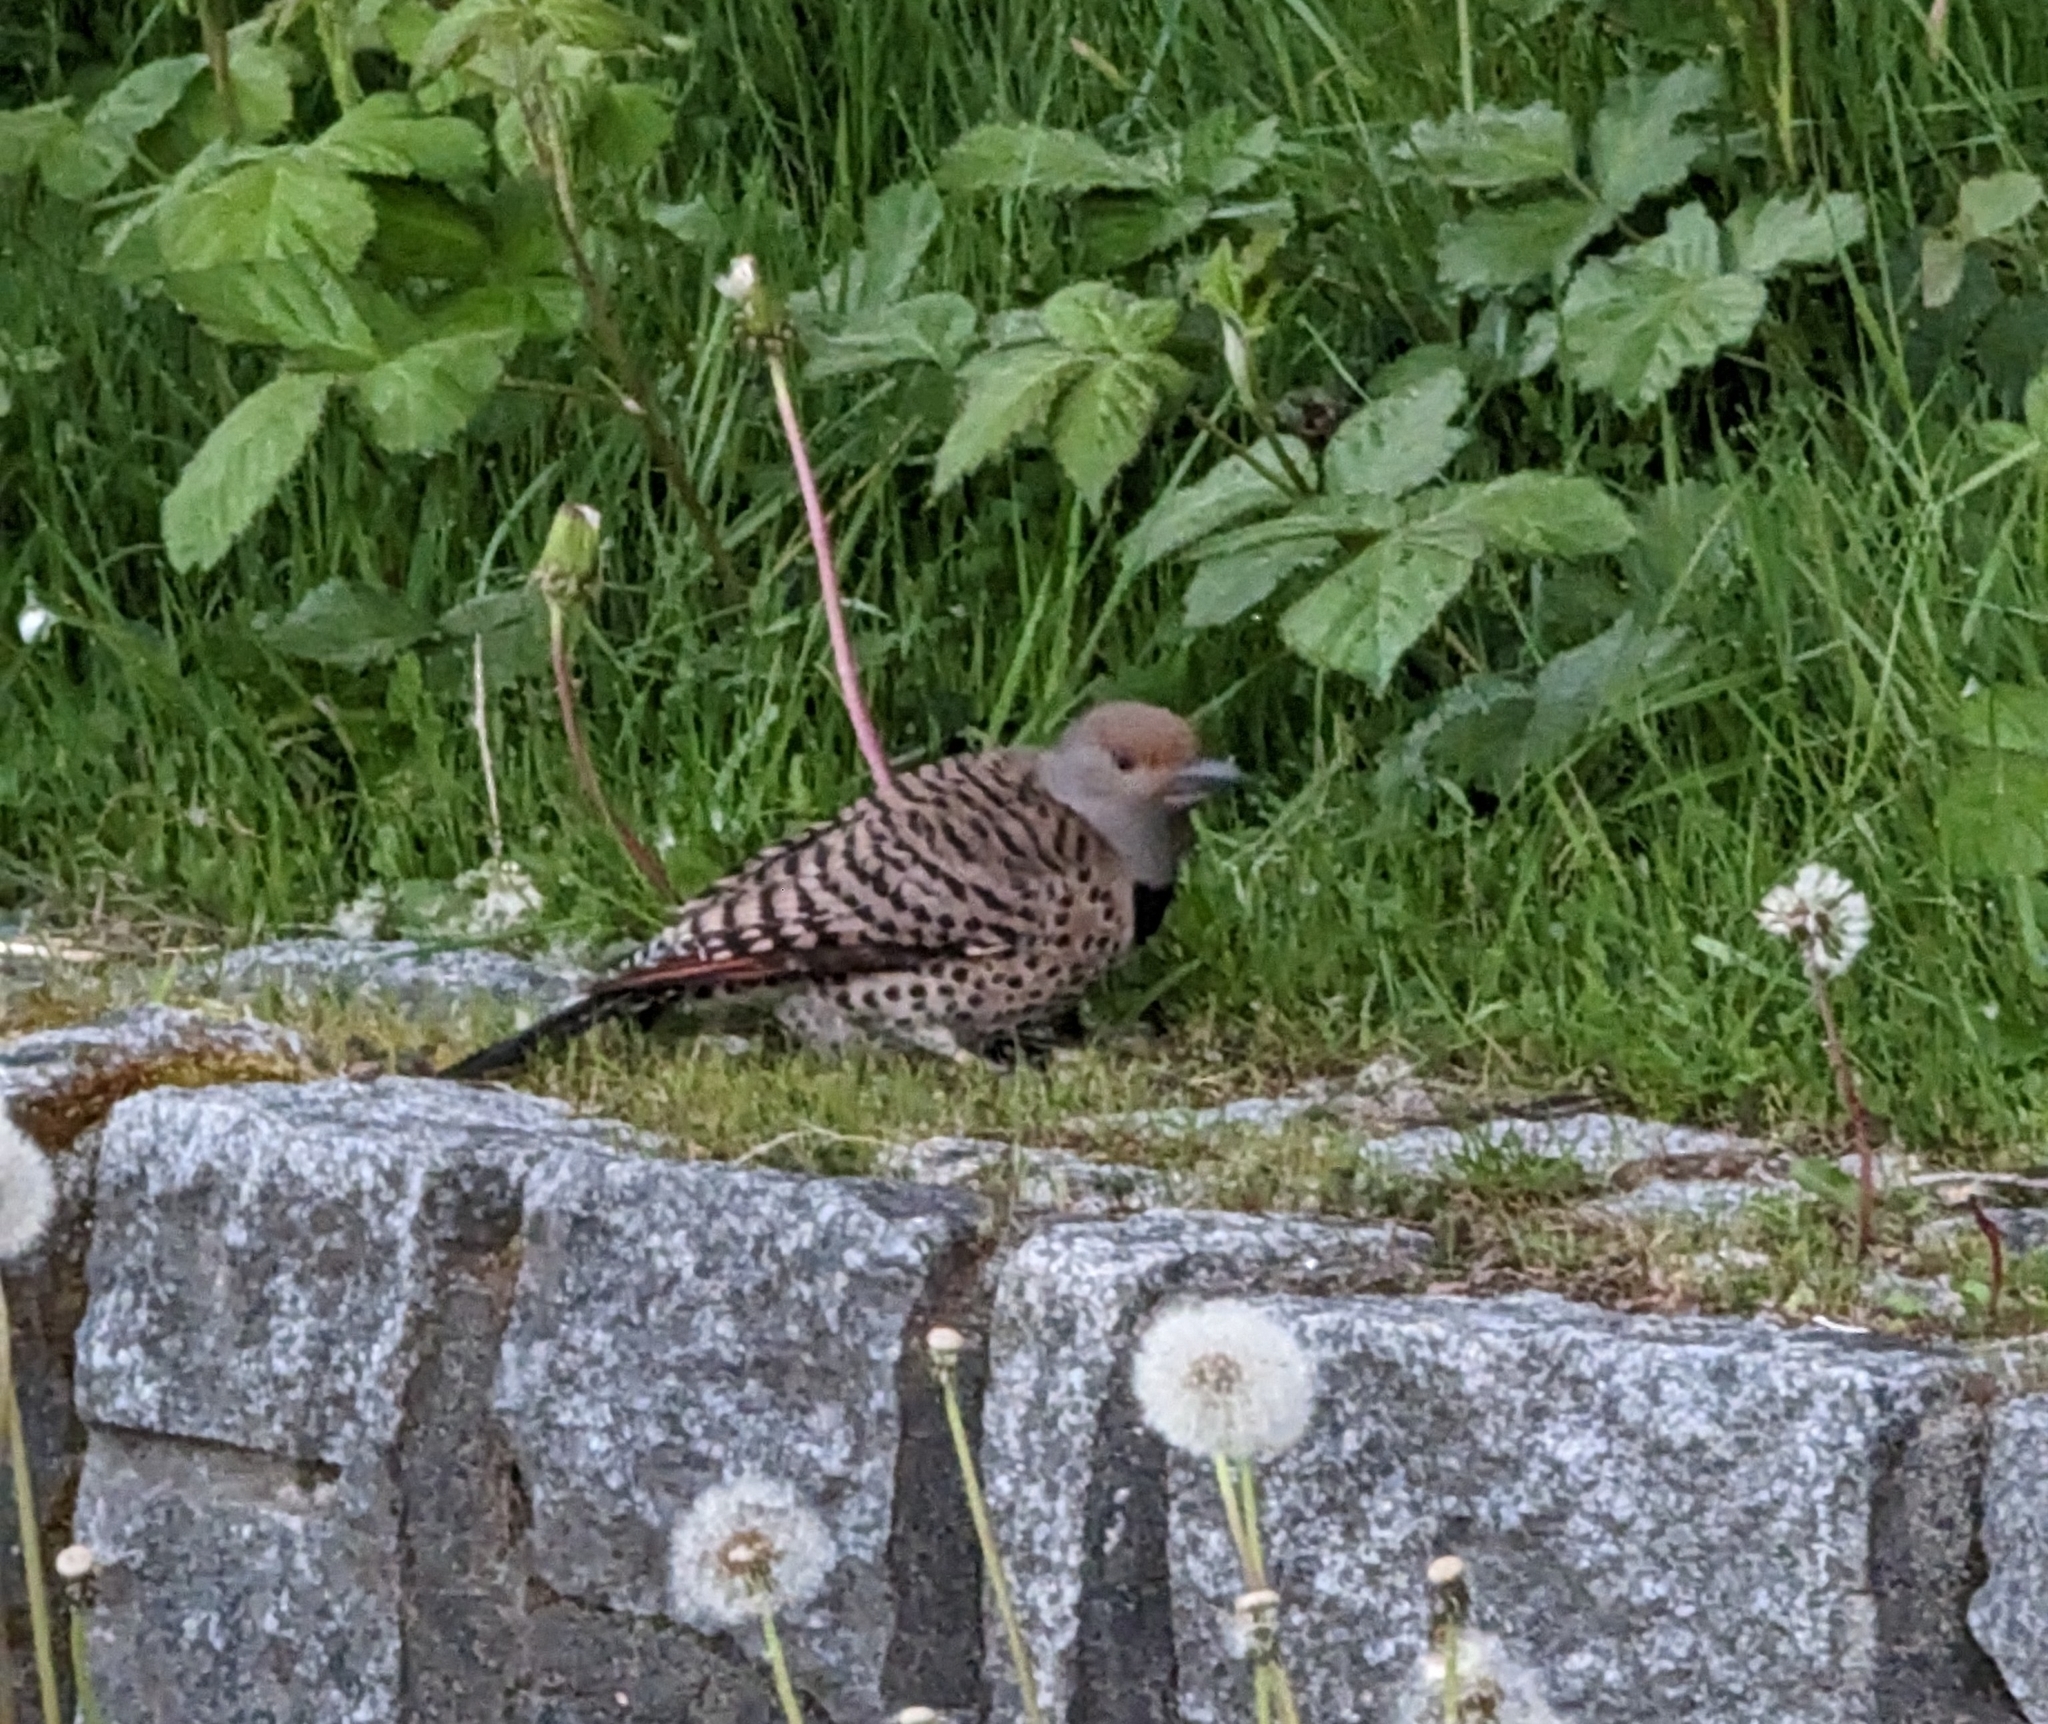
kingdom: Animalia
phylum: Chordata
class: Aves
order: Piciformes
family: Picidae
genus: Colaptes
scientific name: Colaptes auratus
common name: Northern flicker
